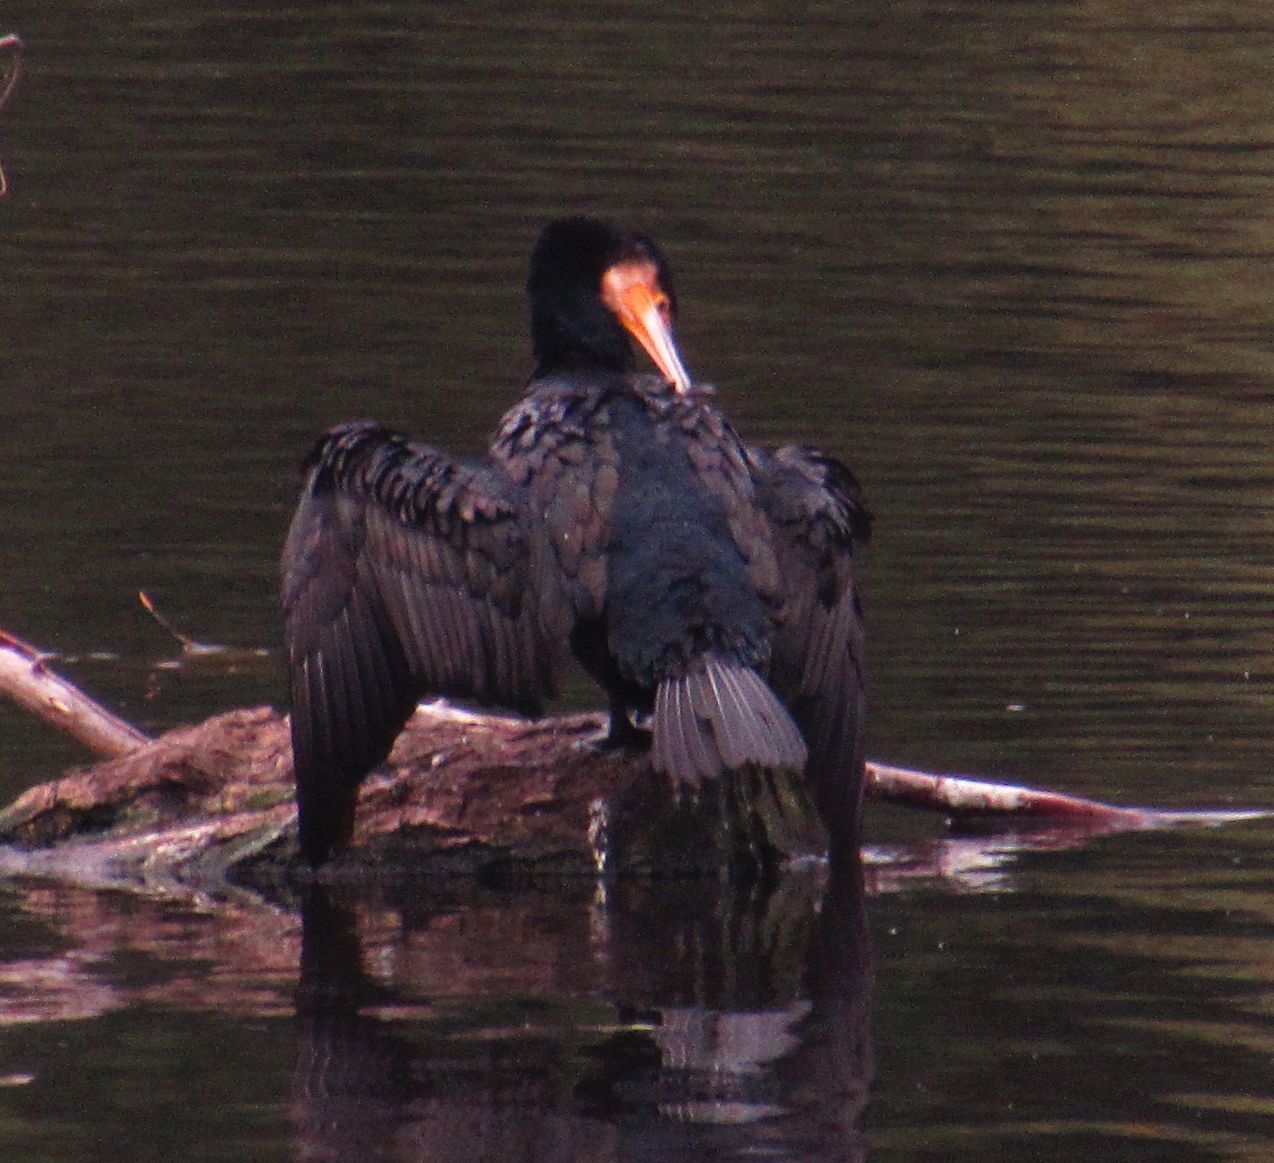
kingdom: Animalia
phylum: Chordata
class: Aves
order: Suliformes
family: Phalacrocoracidae
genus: Phalacrocorax
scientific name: Phalacrocorax carbo
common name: Great cormorant
